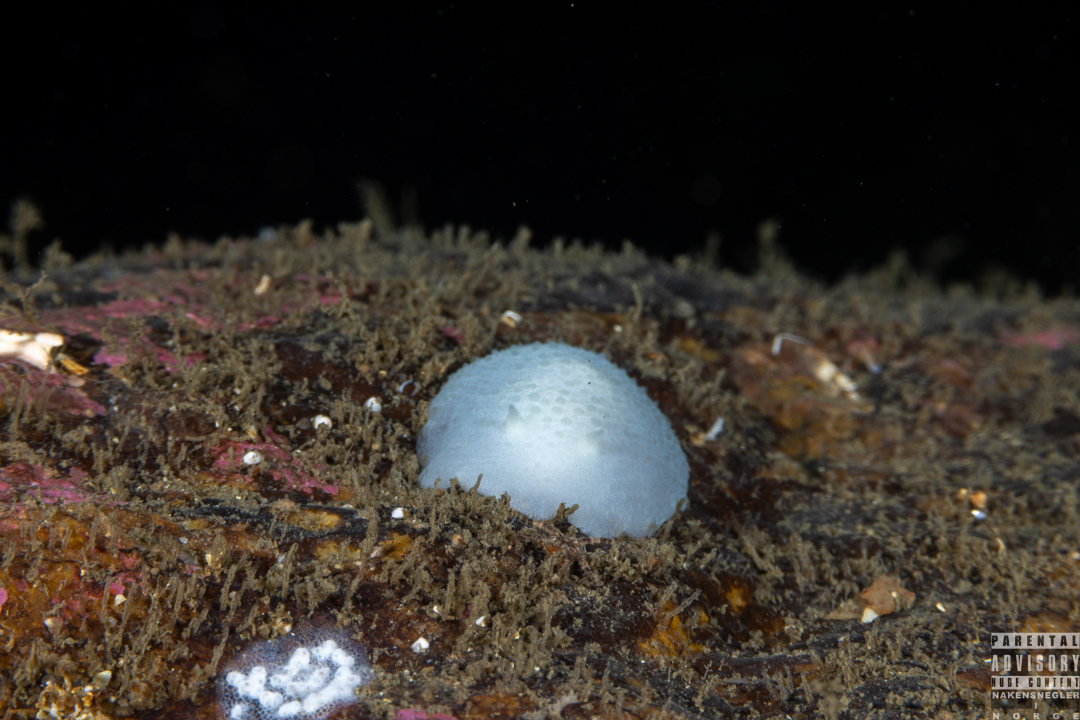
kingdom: Animalia
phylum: Mollusca
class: Gastropoda
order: Nudibranchia
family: Cadlinidae
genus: Aldisa
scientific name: Aldisa zetlandica
